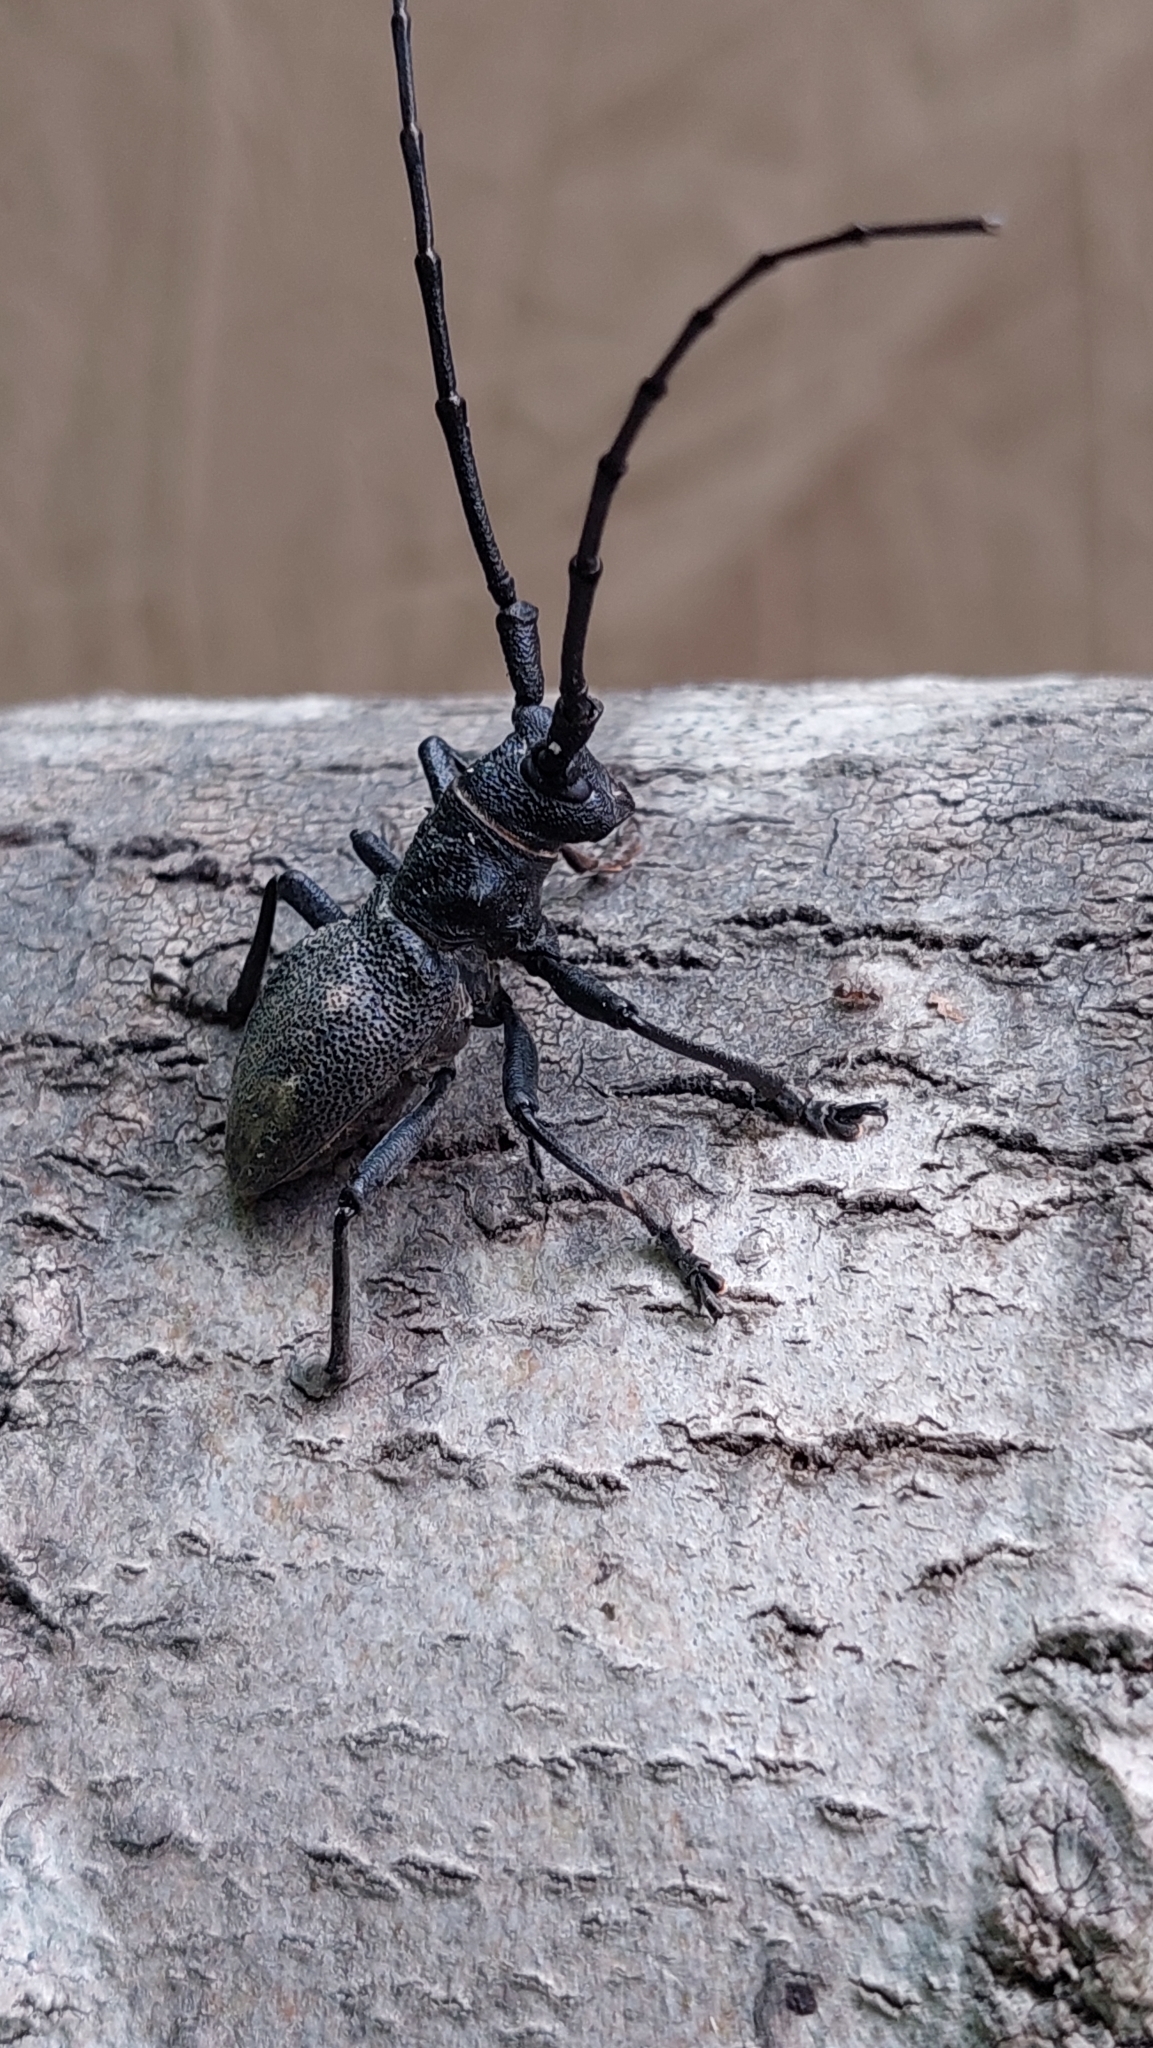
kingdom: Animalia
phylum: Arthropoda
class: Insecta
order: Coleoptera
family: Cerambycidae
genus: Morimus
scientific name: Morimus asper
